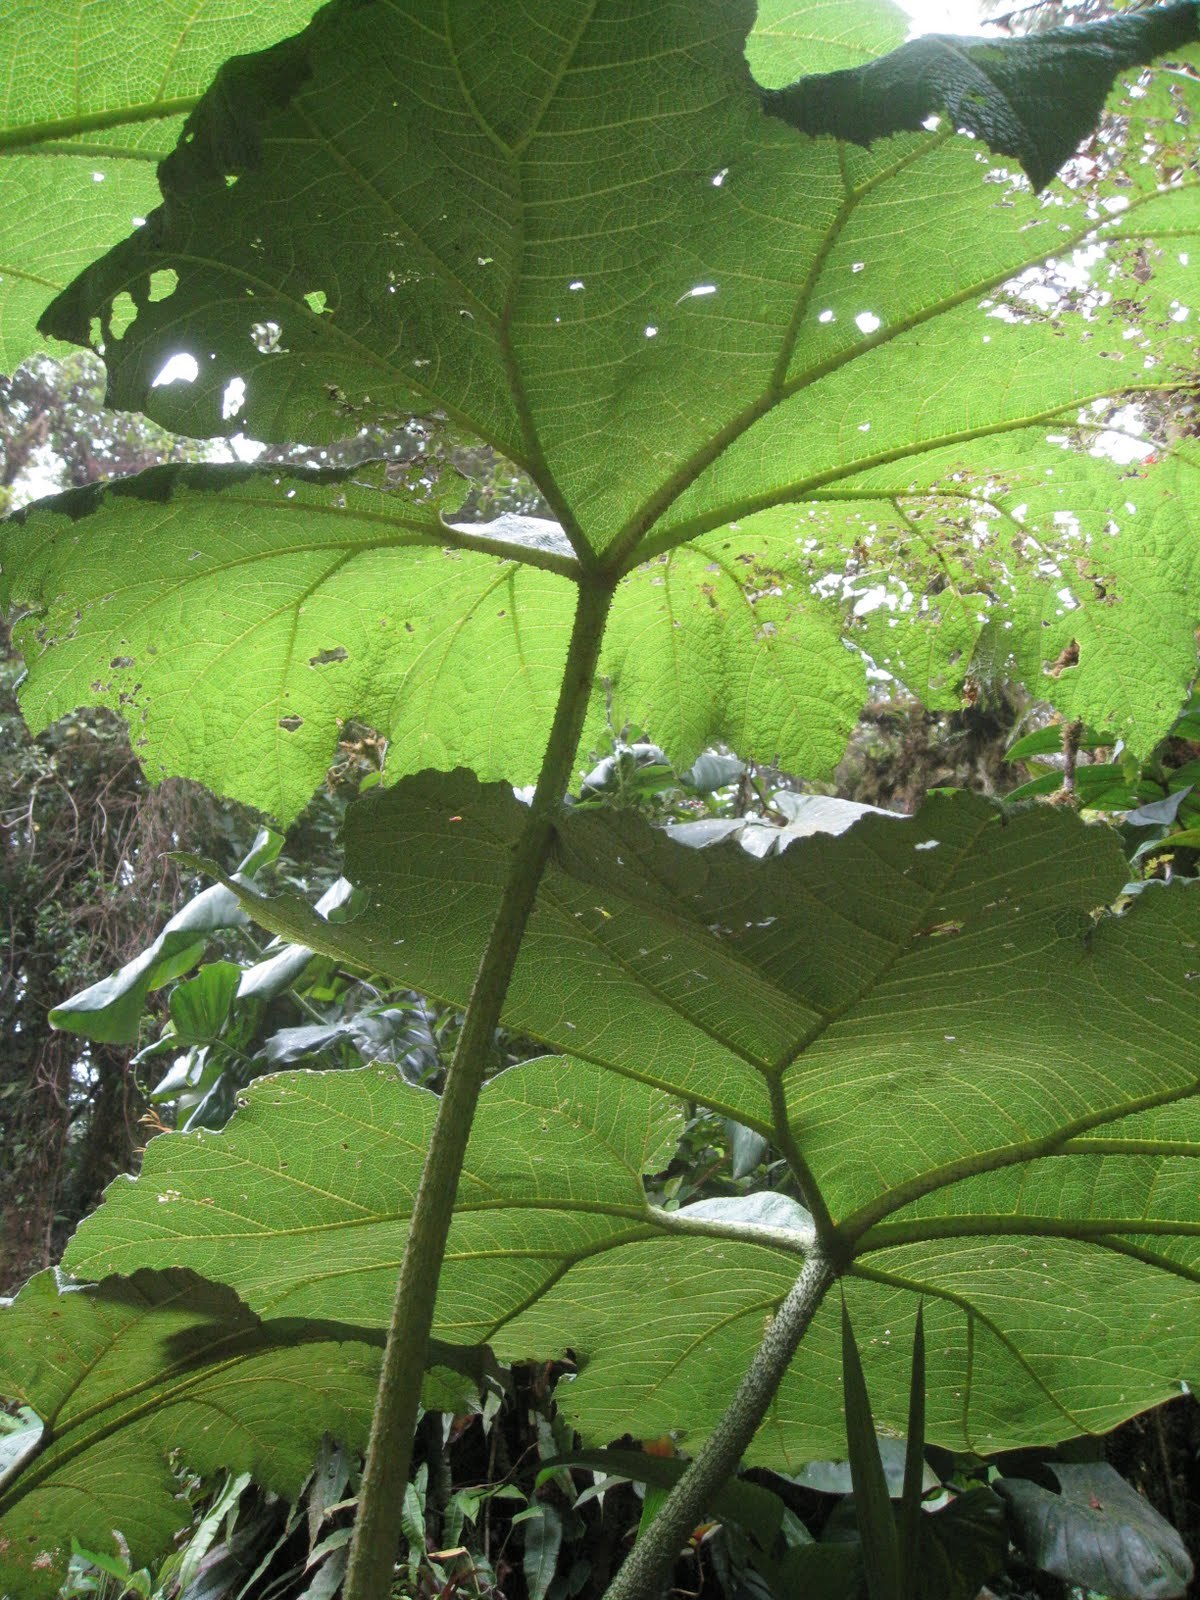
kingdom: Plantae
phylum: Tracheophyta
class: Magnoliopsida
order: Gunnerales
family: Gunneraceae
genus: Gunnera
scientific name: Gunnera insignis
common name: Poorman's umbrella
